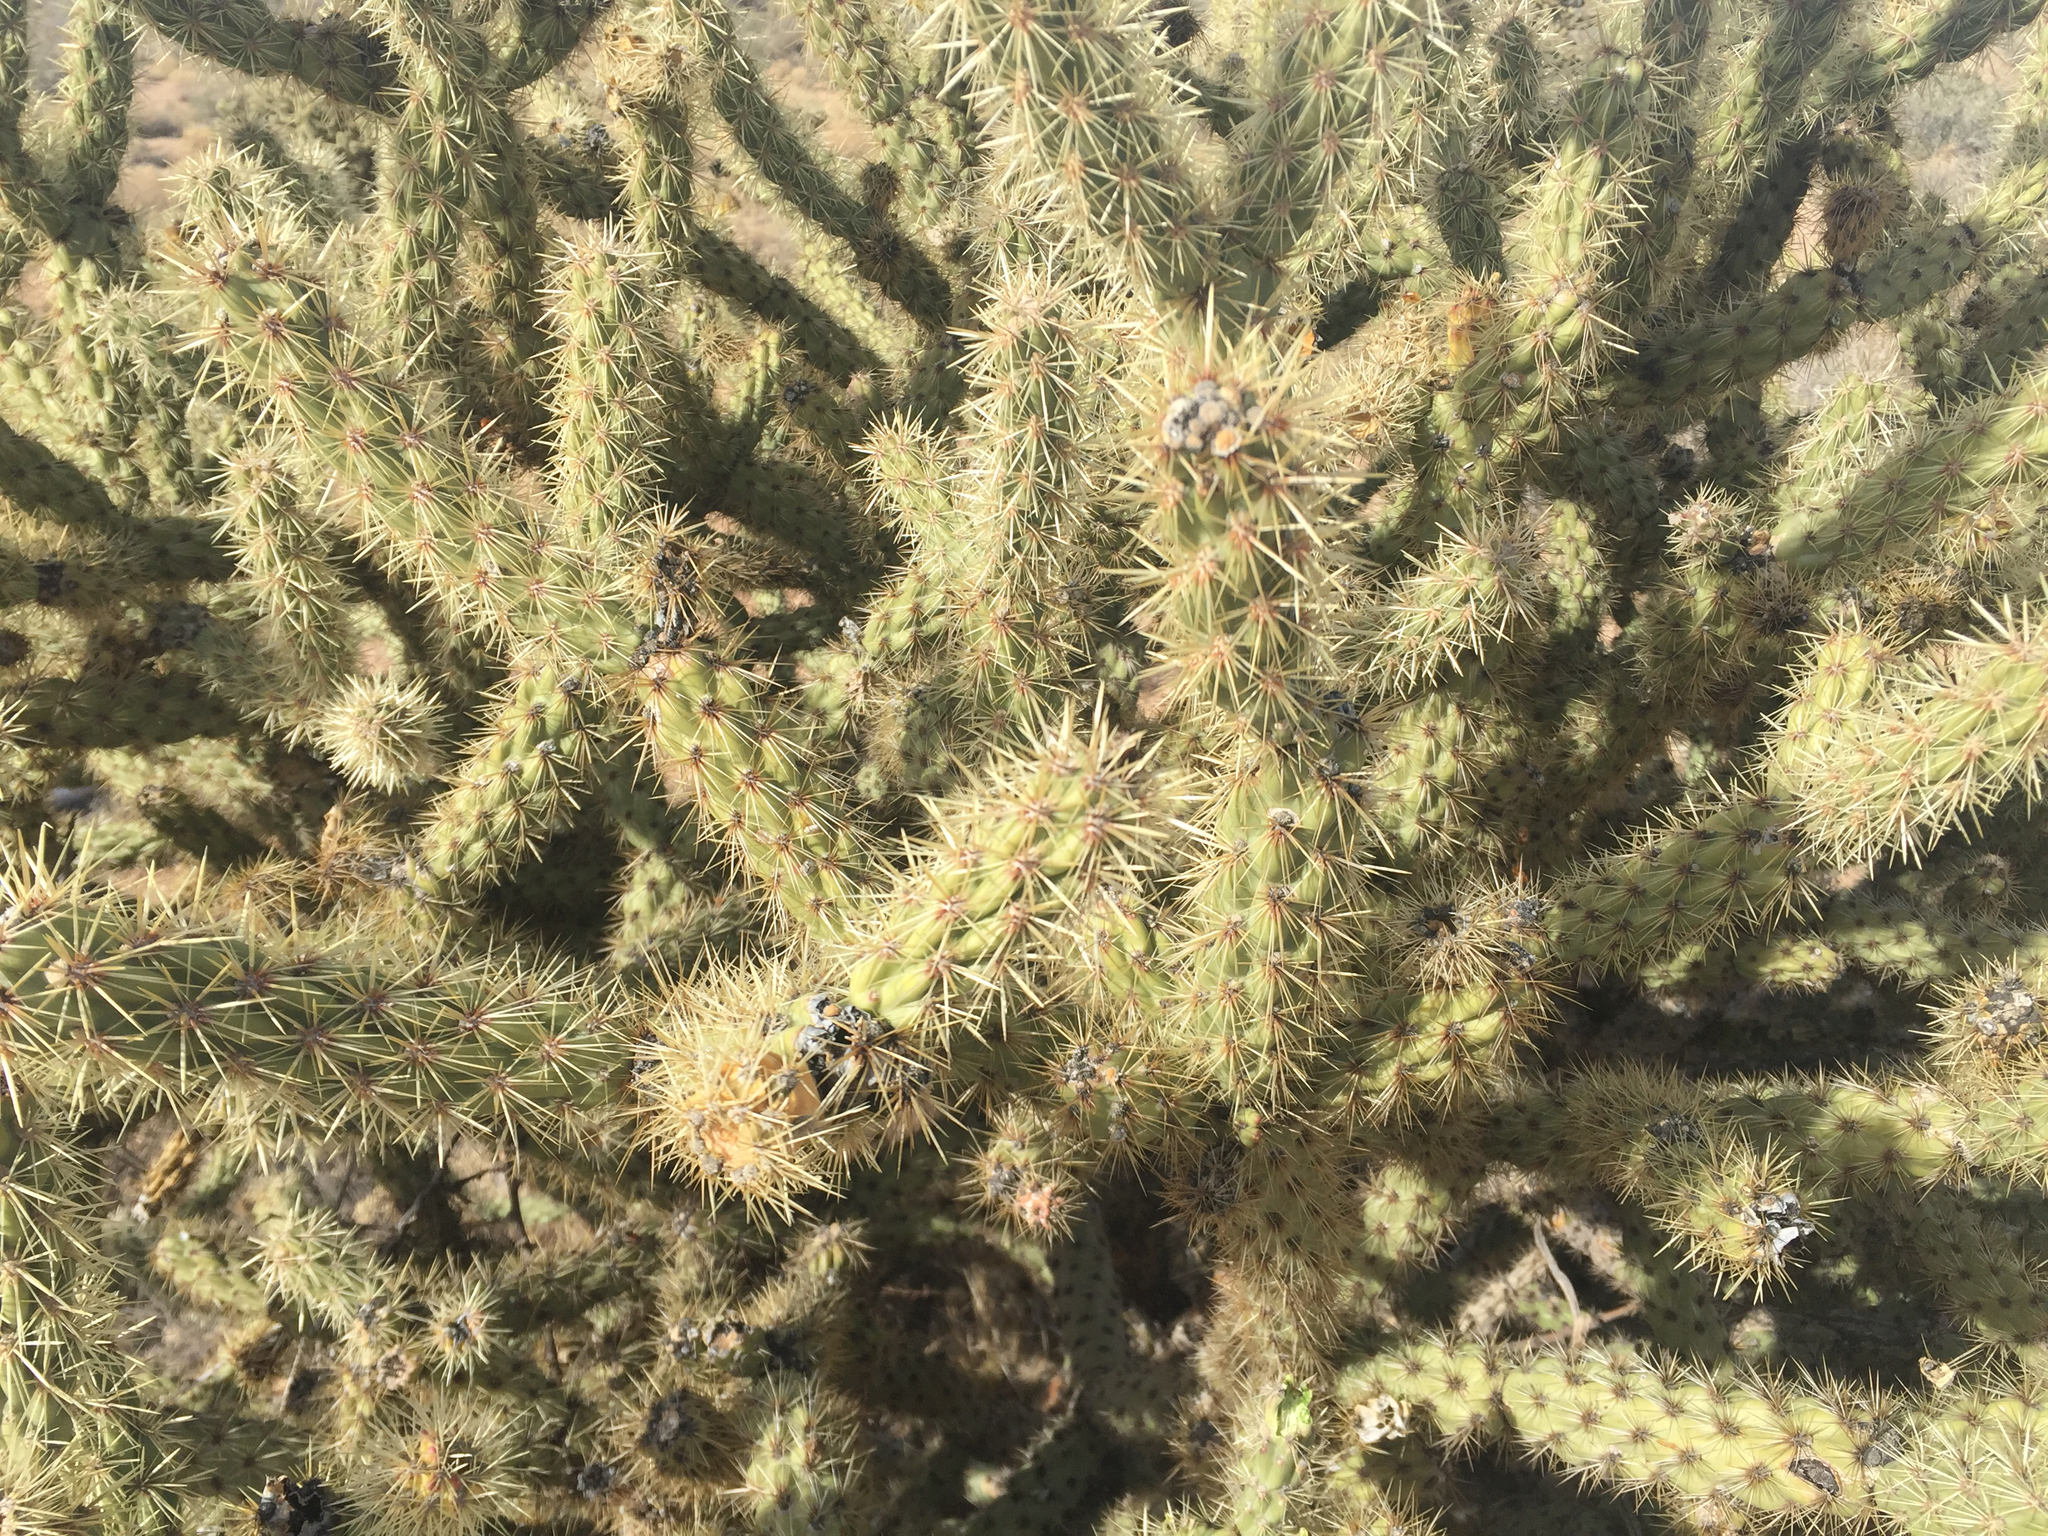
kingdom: Plantae
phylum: Tracheophyta
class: Magnoliopsida
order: Caryophyllales
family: Cactaceae
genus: Cylindropuntia
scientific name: Cylindropuntia acanthocarpa
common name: Buckhorn cholla
